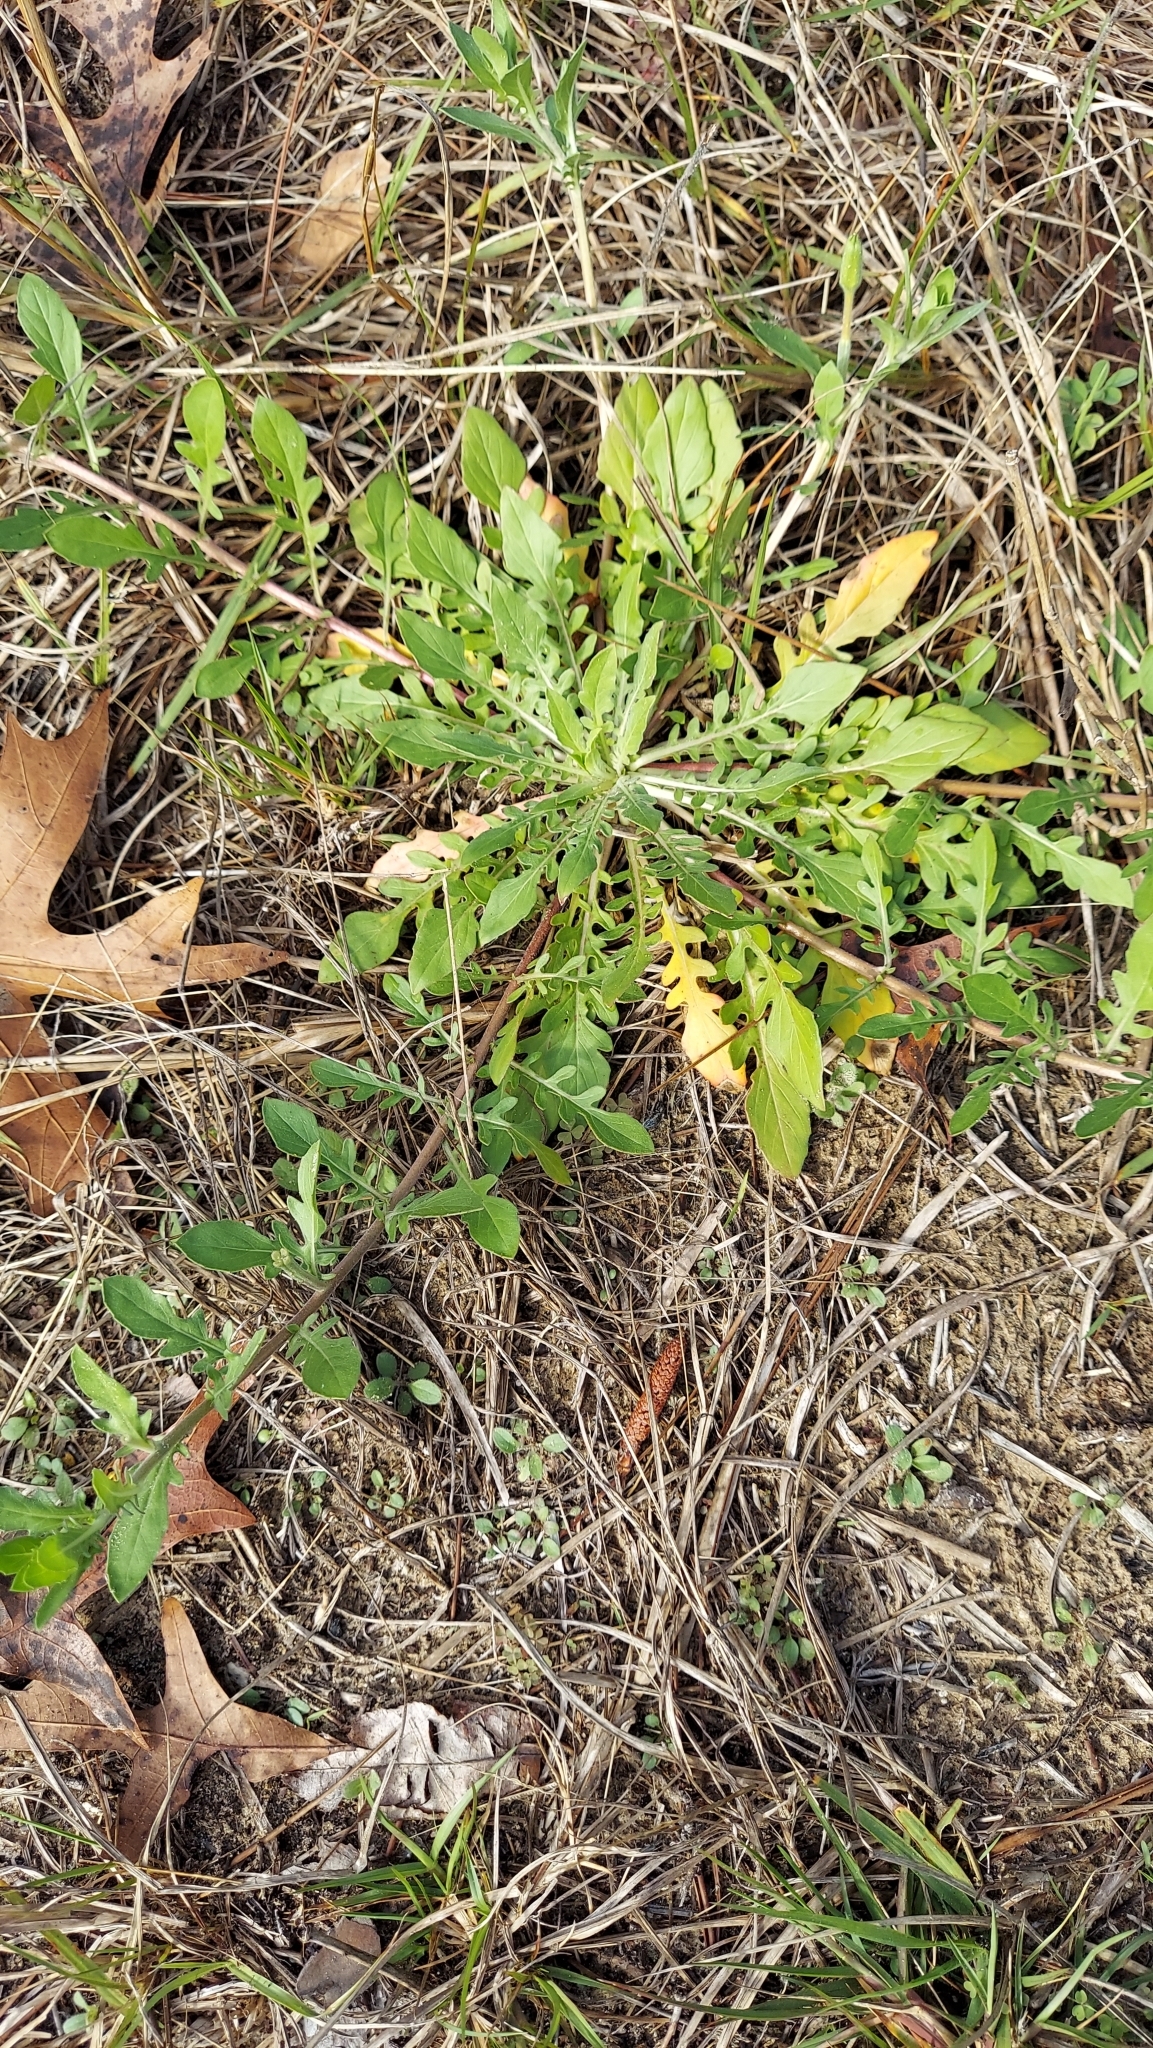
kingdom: Plantae
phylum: Tracheophyta
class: Magnoliopsida
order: Myrtales
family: Onagraceae
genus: Oenothera
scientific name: Oenothera laciniata
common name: Cut-leaved evening-primrose
